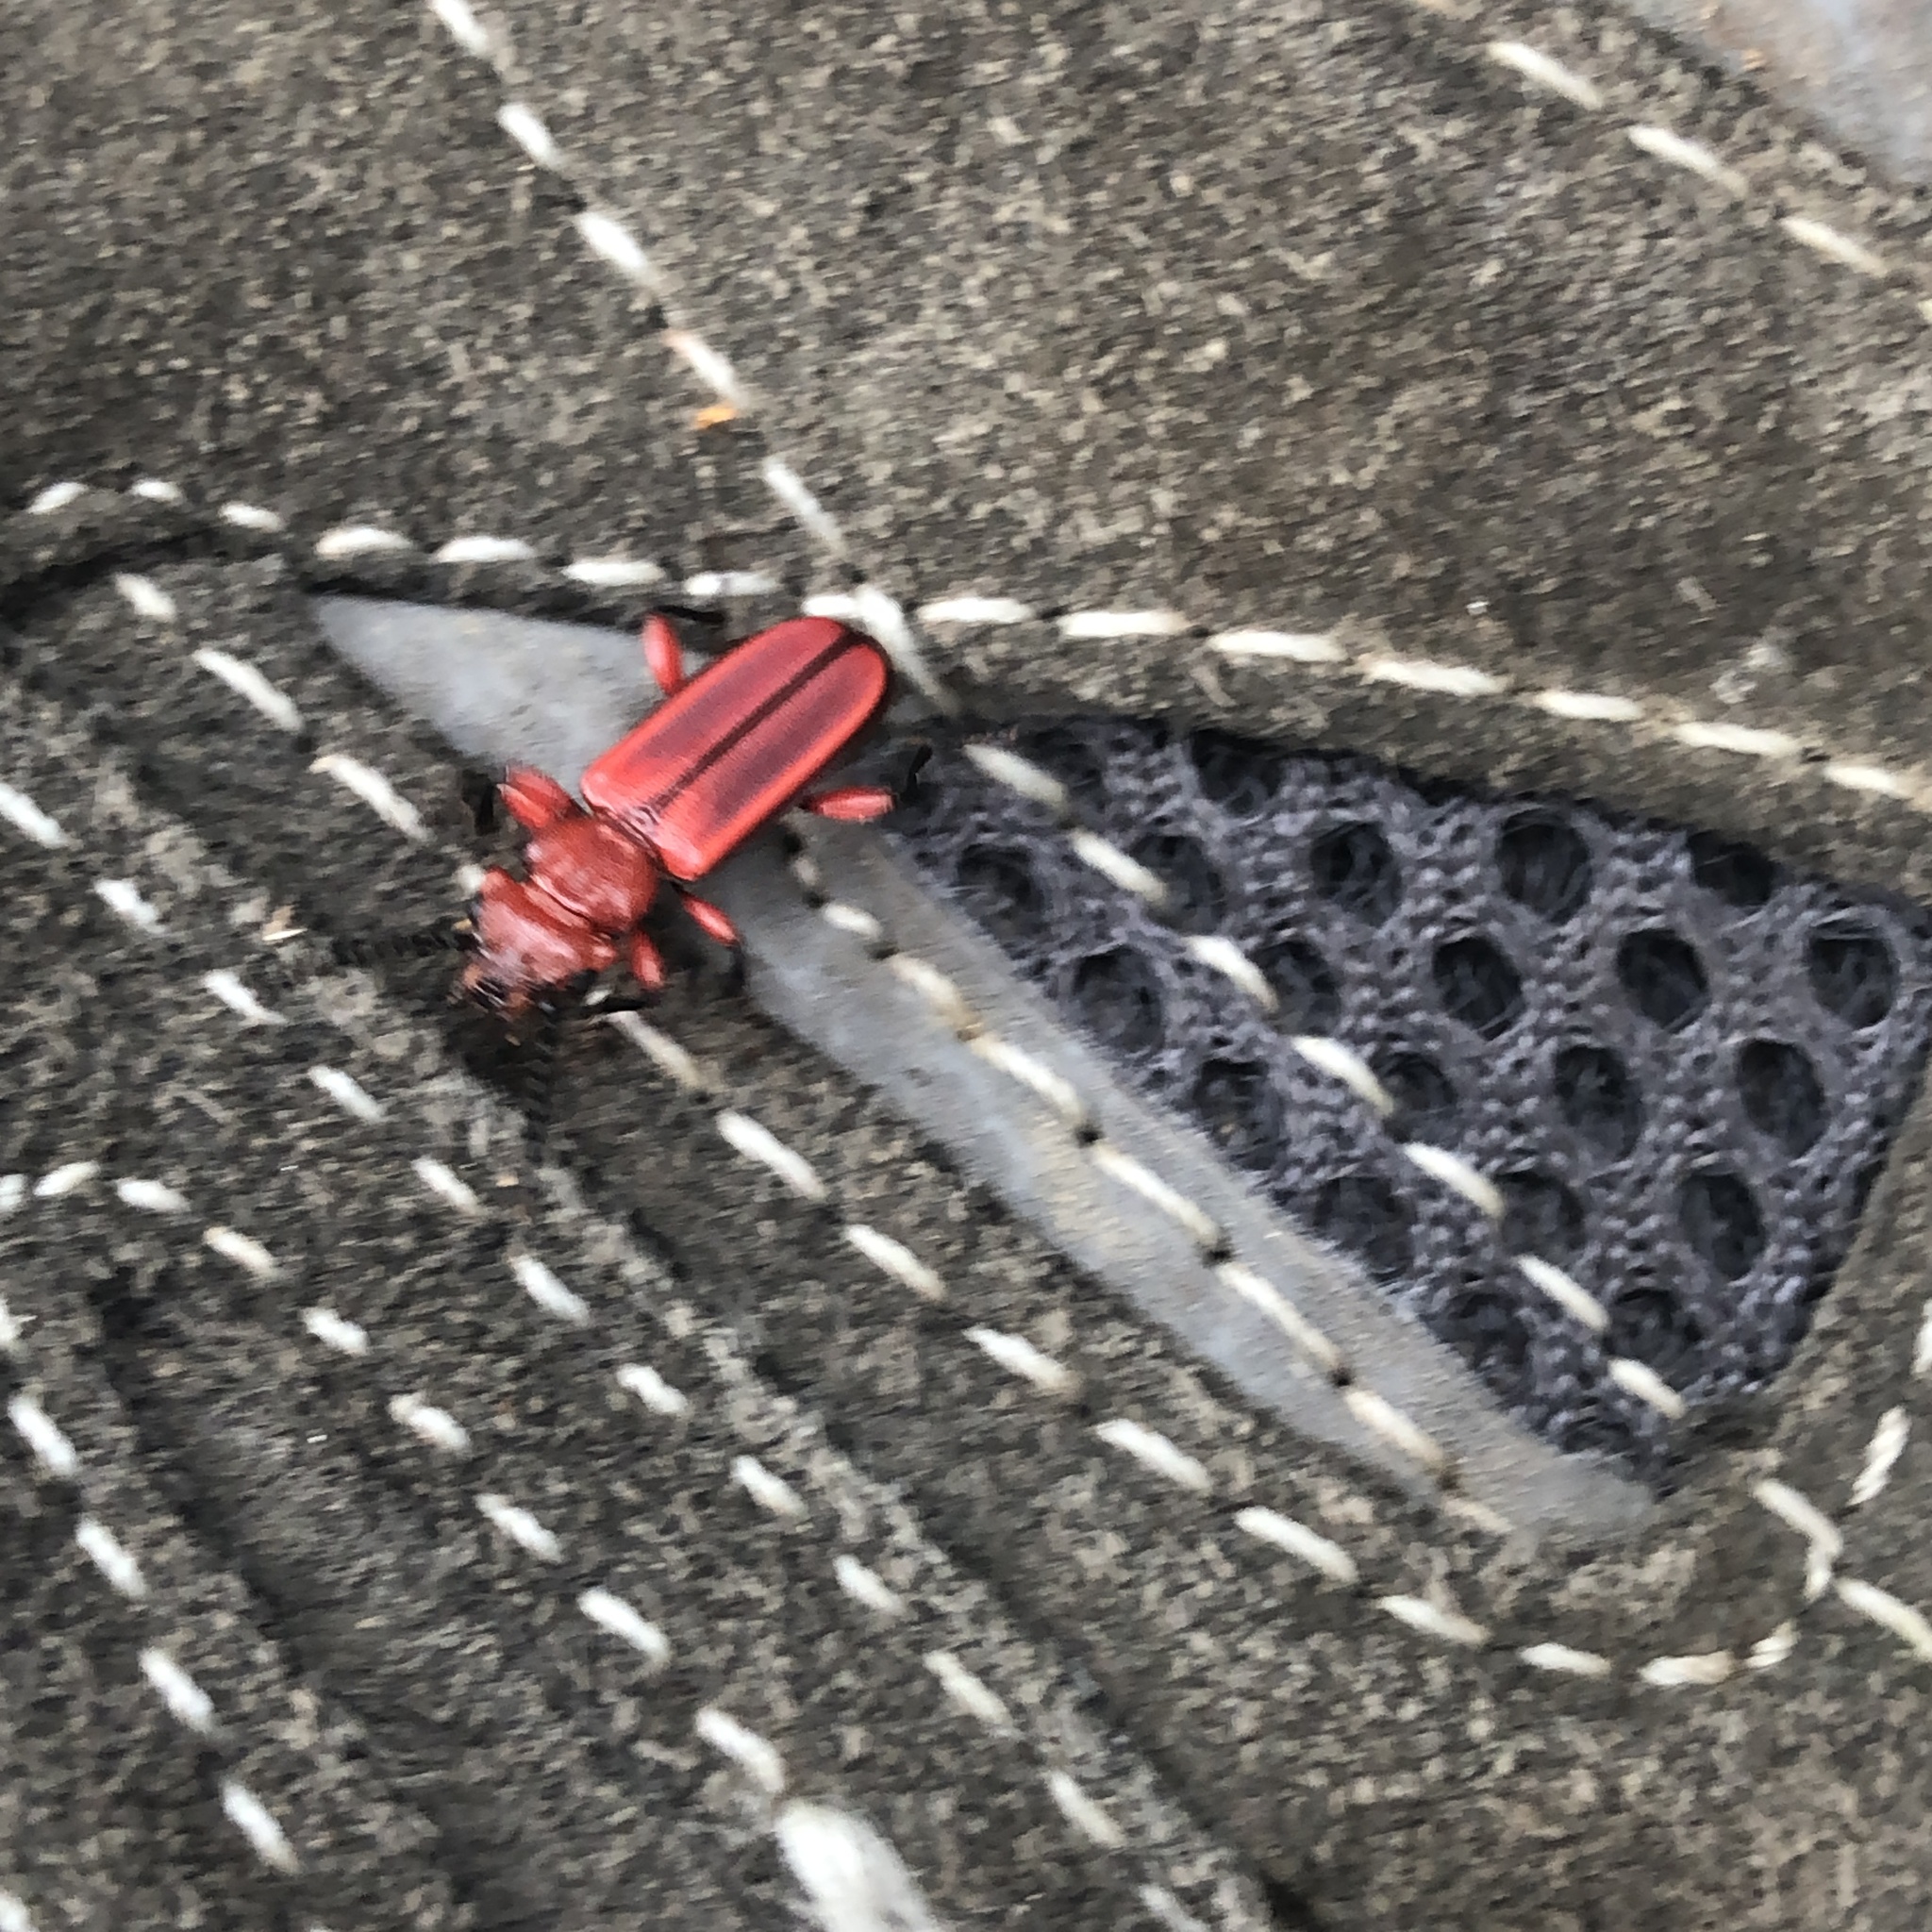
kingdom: Animalia
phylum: Arthropoda
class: Insecta
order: Coleoptera
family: Cucujidae
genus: Cucujus
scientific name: Cucujus clavipes
